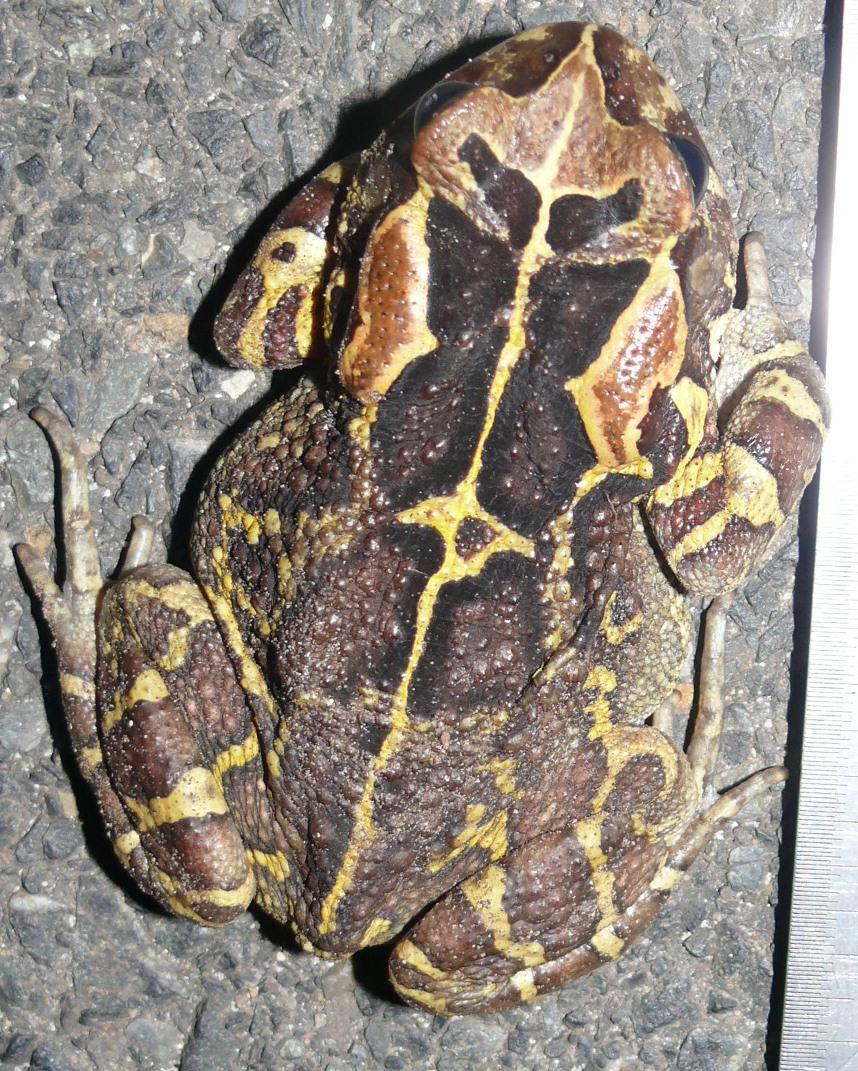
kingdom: Animalia
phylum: Chordata
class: Amphibia
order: Anura
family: Bufonidae
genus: Sclerophrys
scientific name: Sclerophrys pantherina
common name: Panther toad
